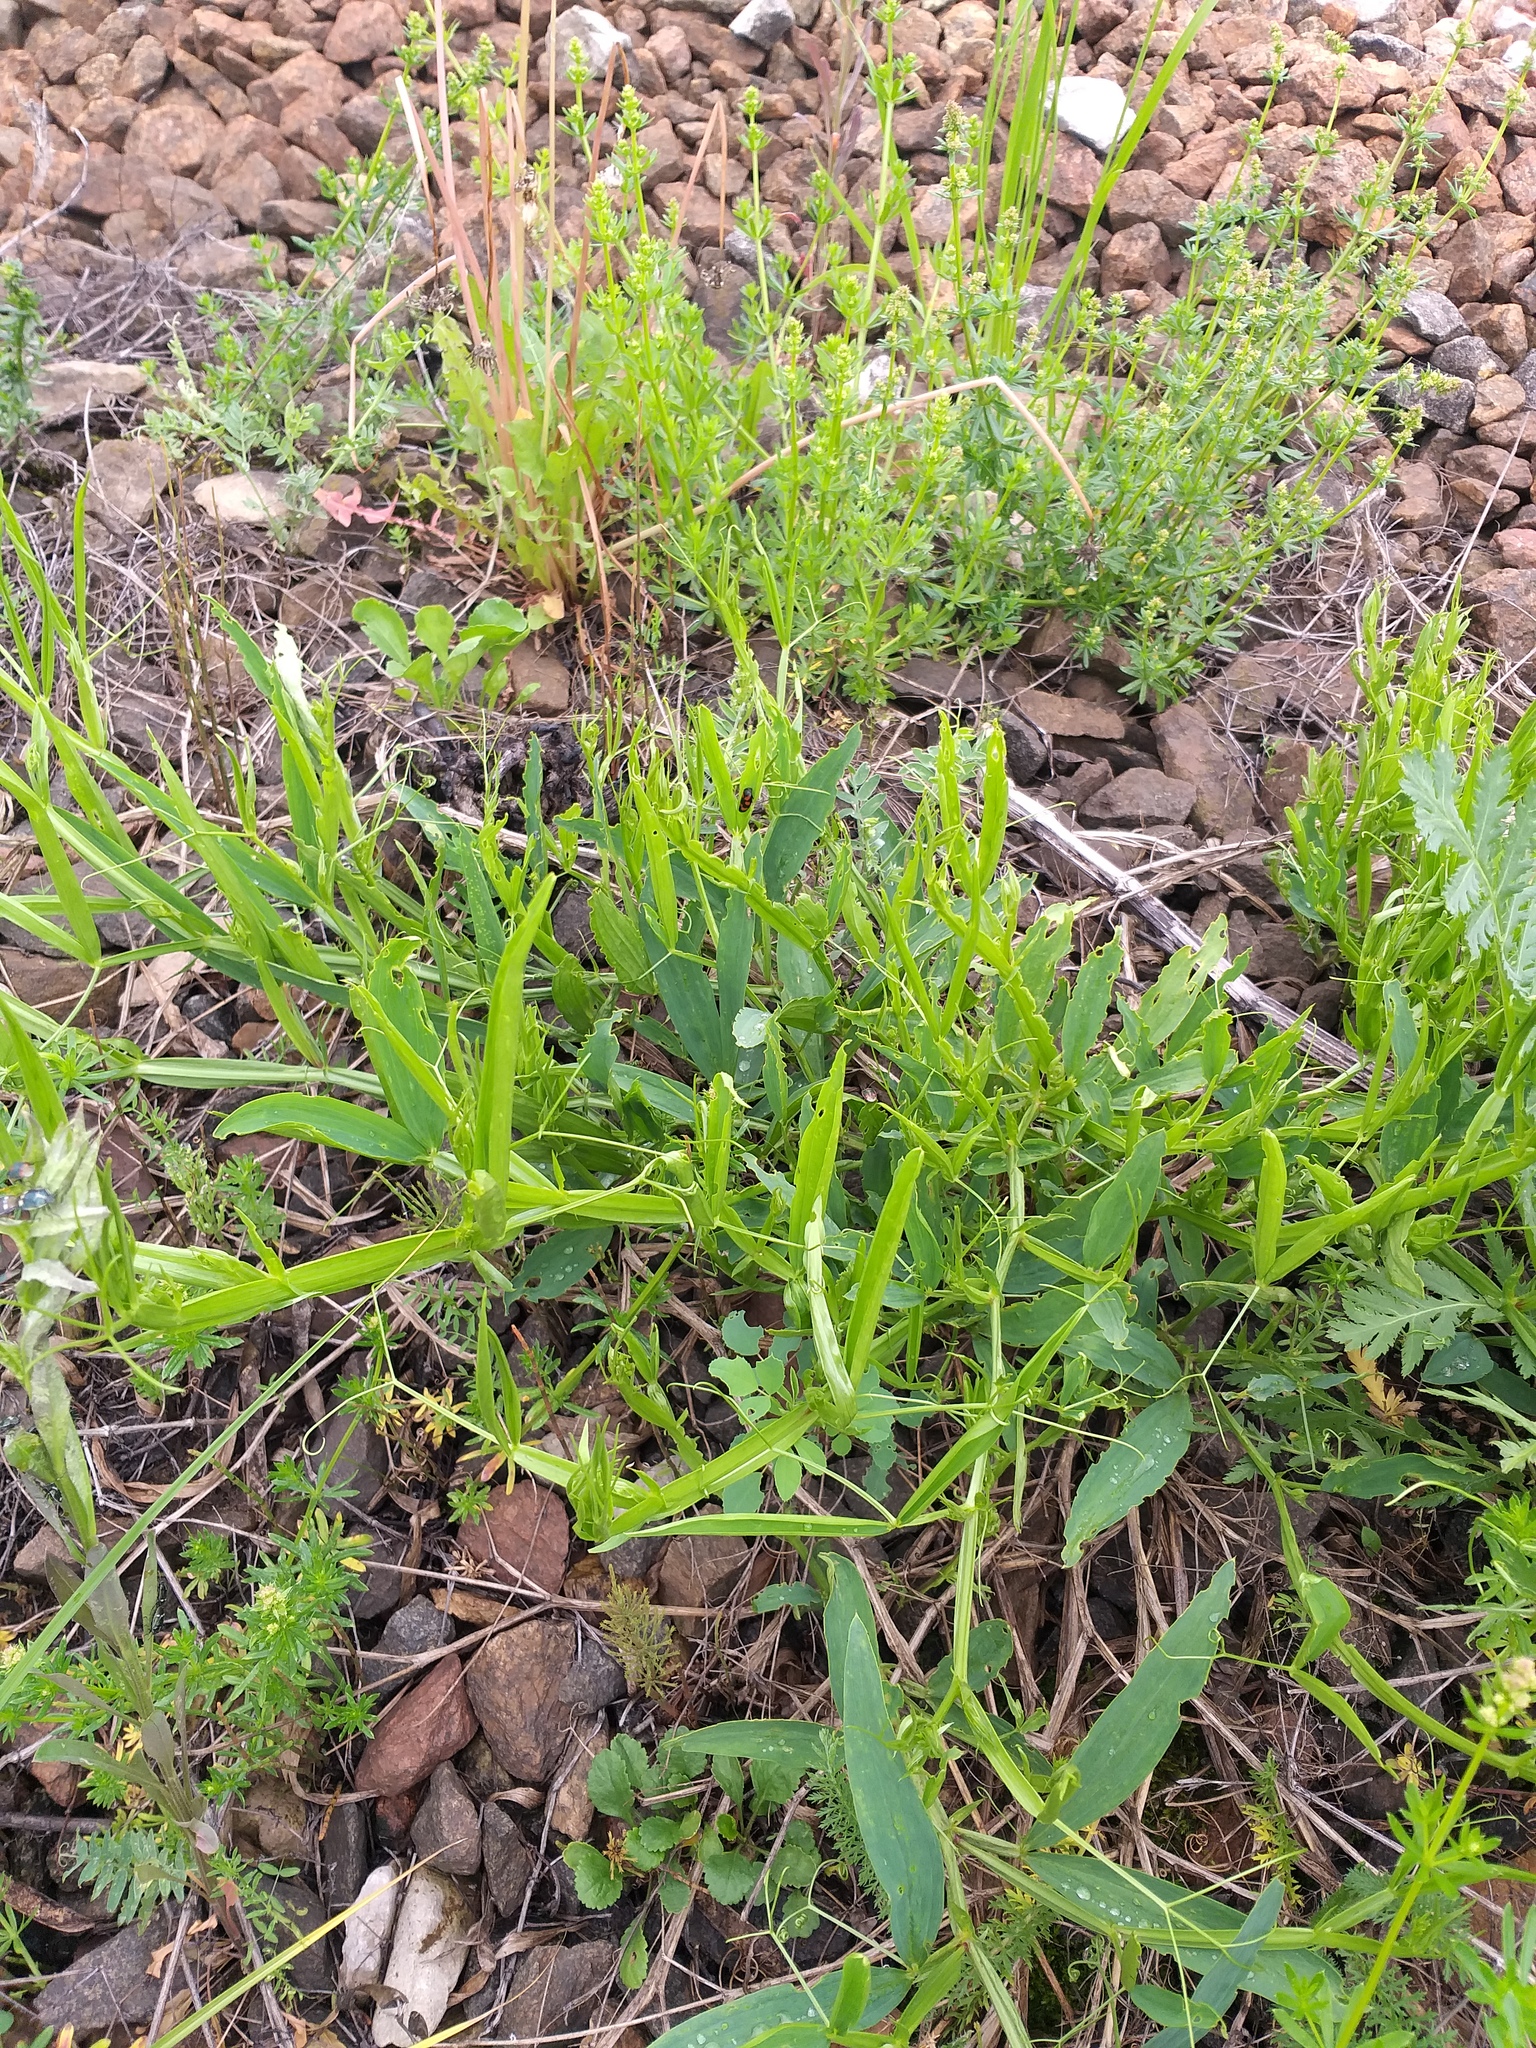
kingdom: Plantae
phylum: Tracheophyta
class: Magnoliopsida
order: Fabales
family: Fabaceae
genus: Lathyrus
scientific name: Lathyrus sylvestris
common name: Flat pea
